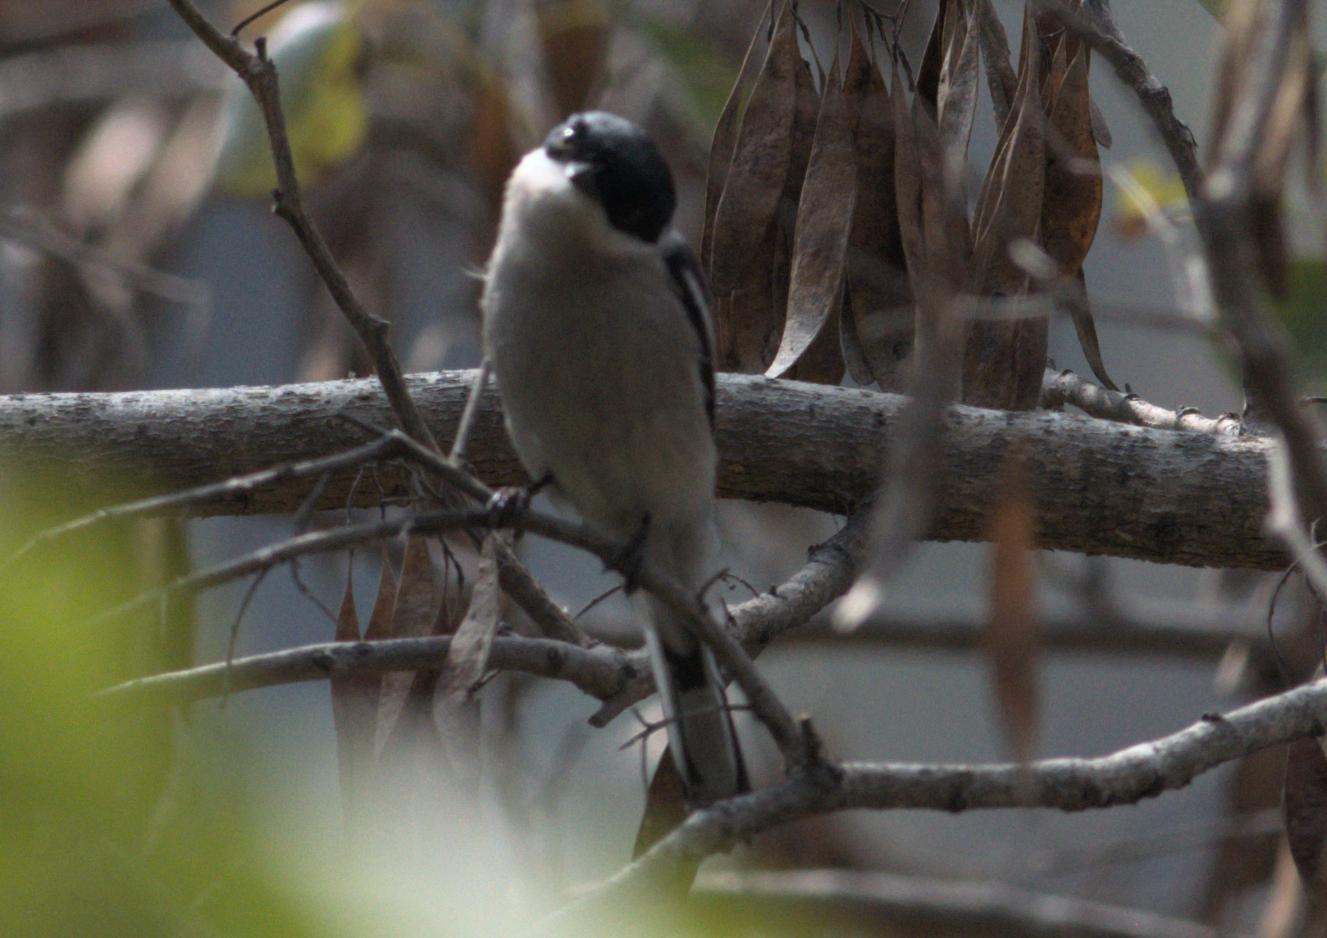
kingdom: Animalia
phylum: Chordata
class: Aves
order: Passeriformes
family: Tephrodornithidae
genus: Hemipus
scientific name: Hemipus picatus
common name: Bar-winged flycatcher-shrike
